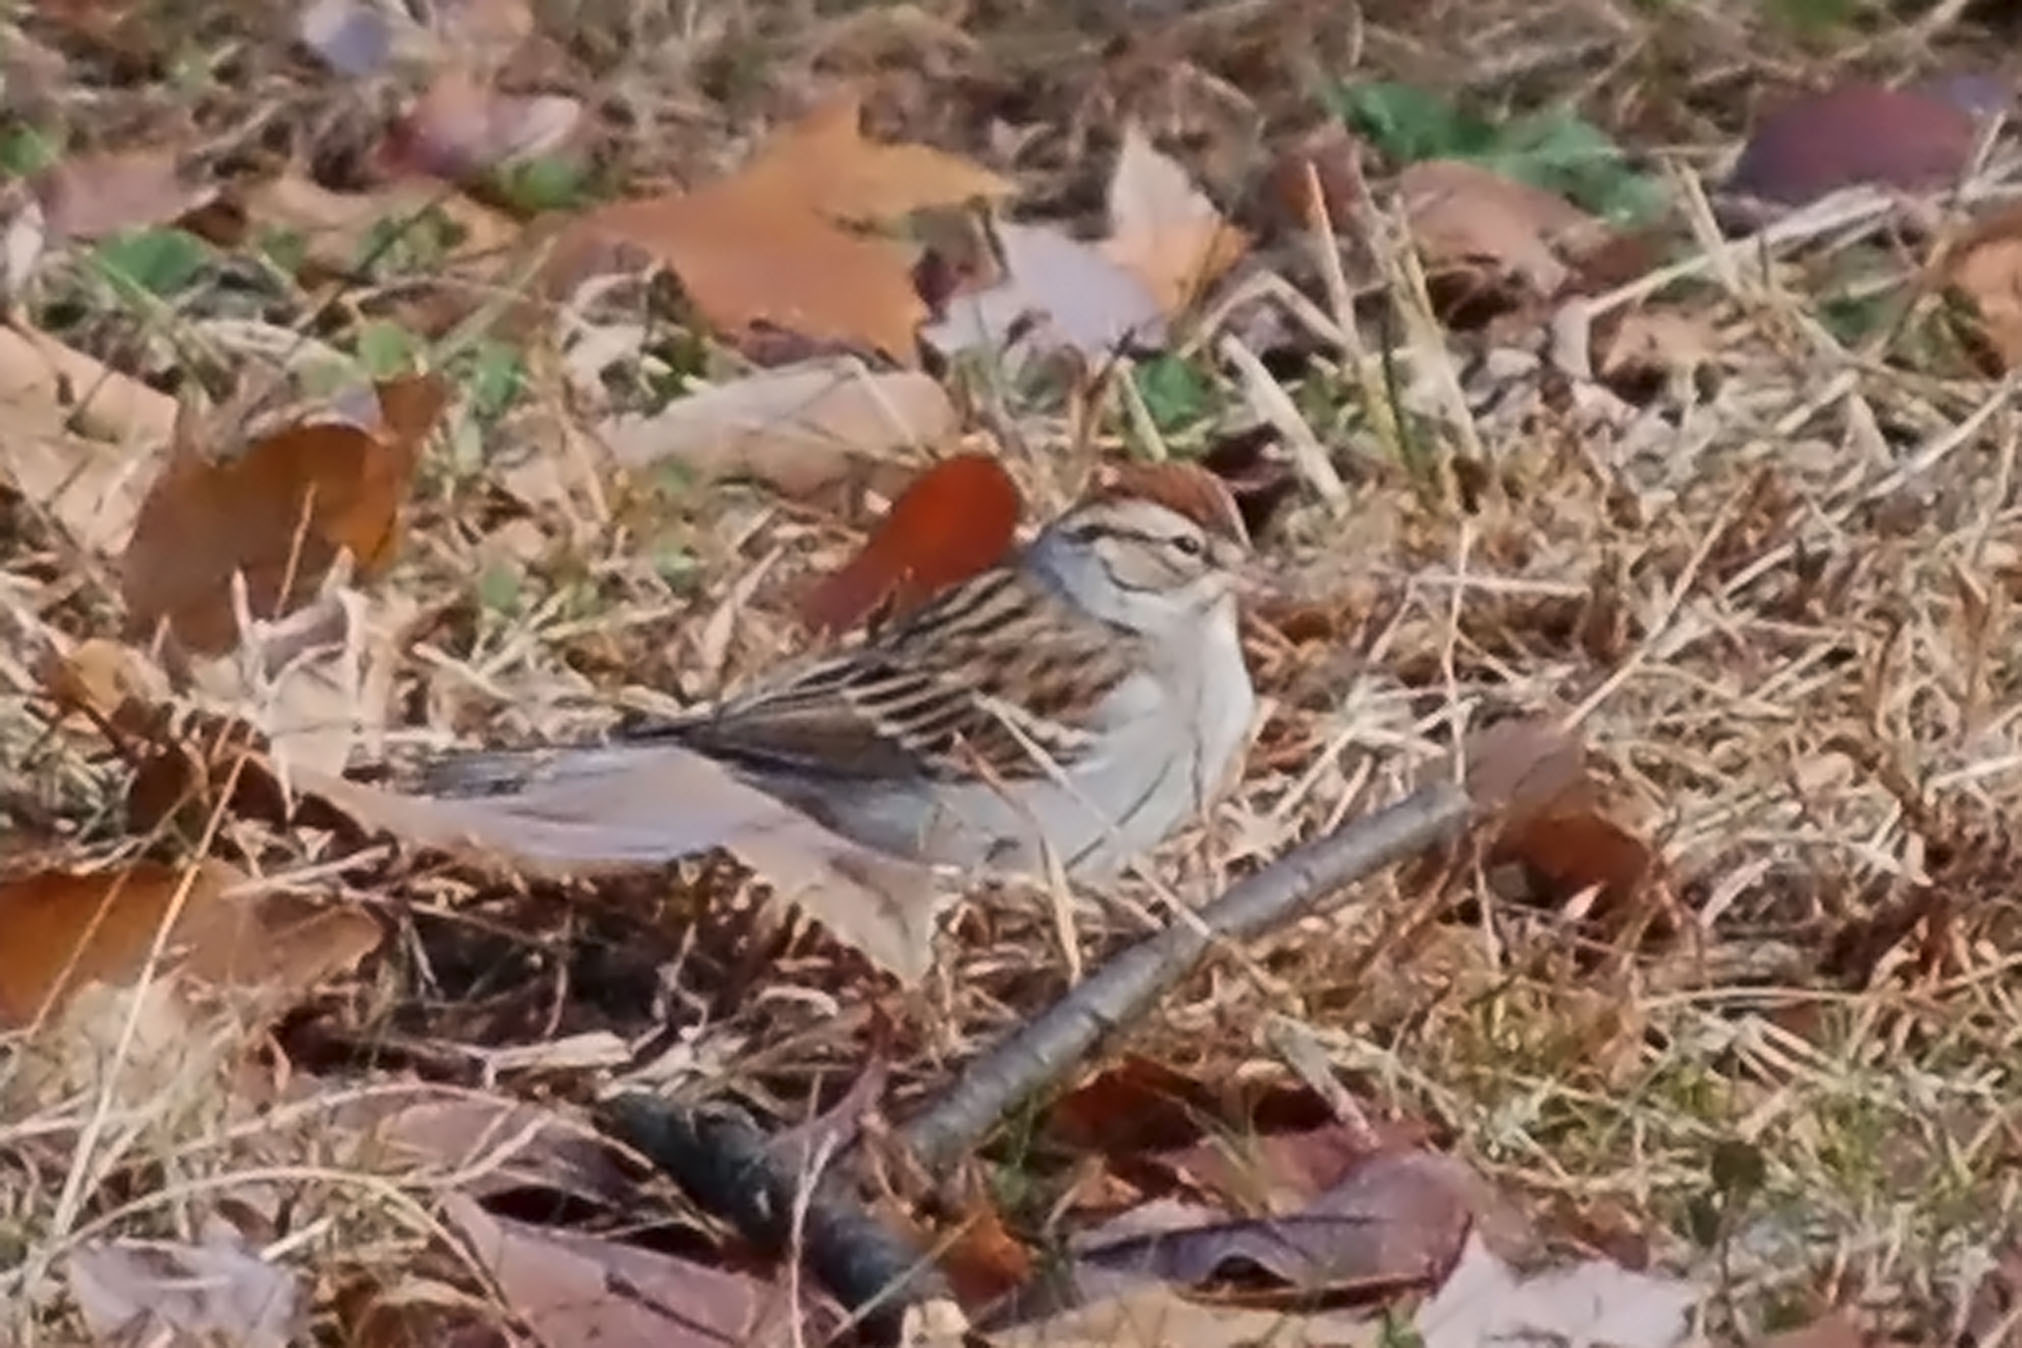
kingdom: Animalia
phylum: Chordata
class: Aves
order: Passeriformes
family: Passerellidae
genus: Spizella
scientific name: Spizella passerina
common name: Chipping sparrow
